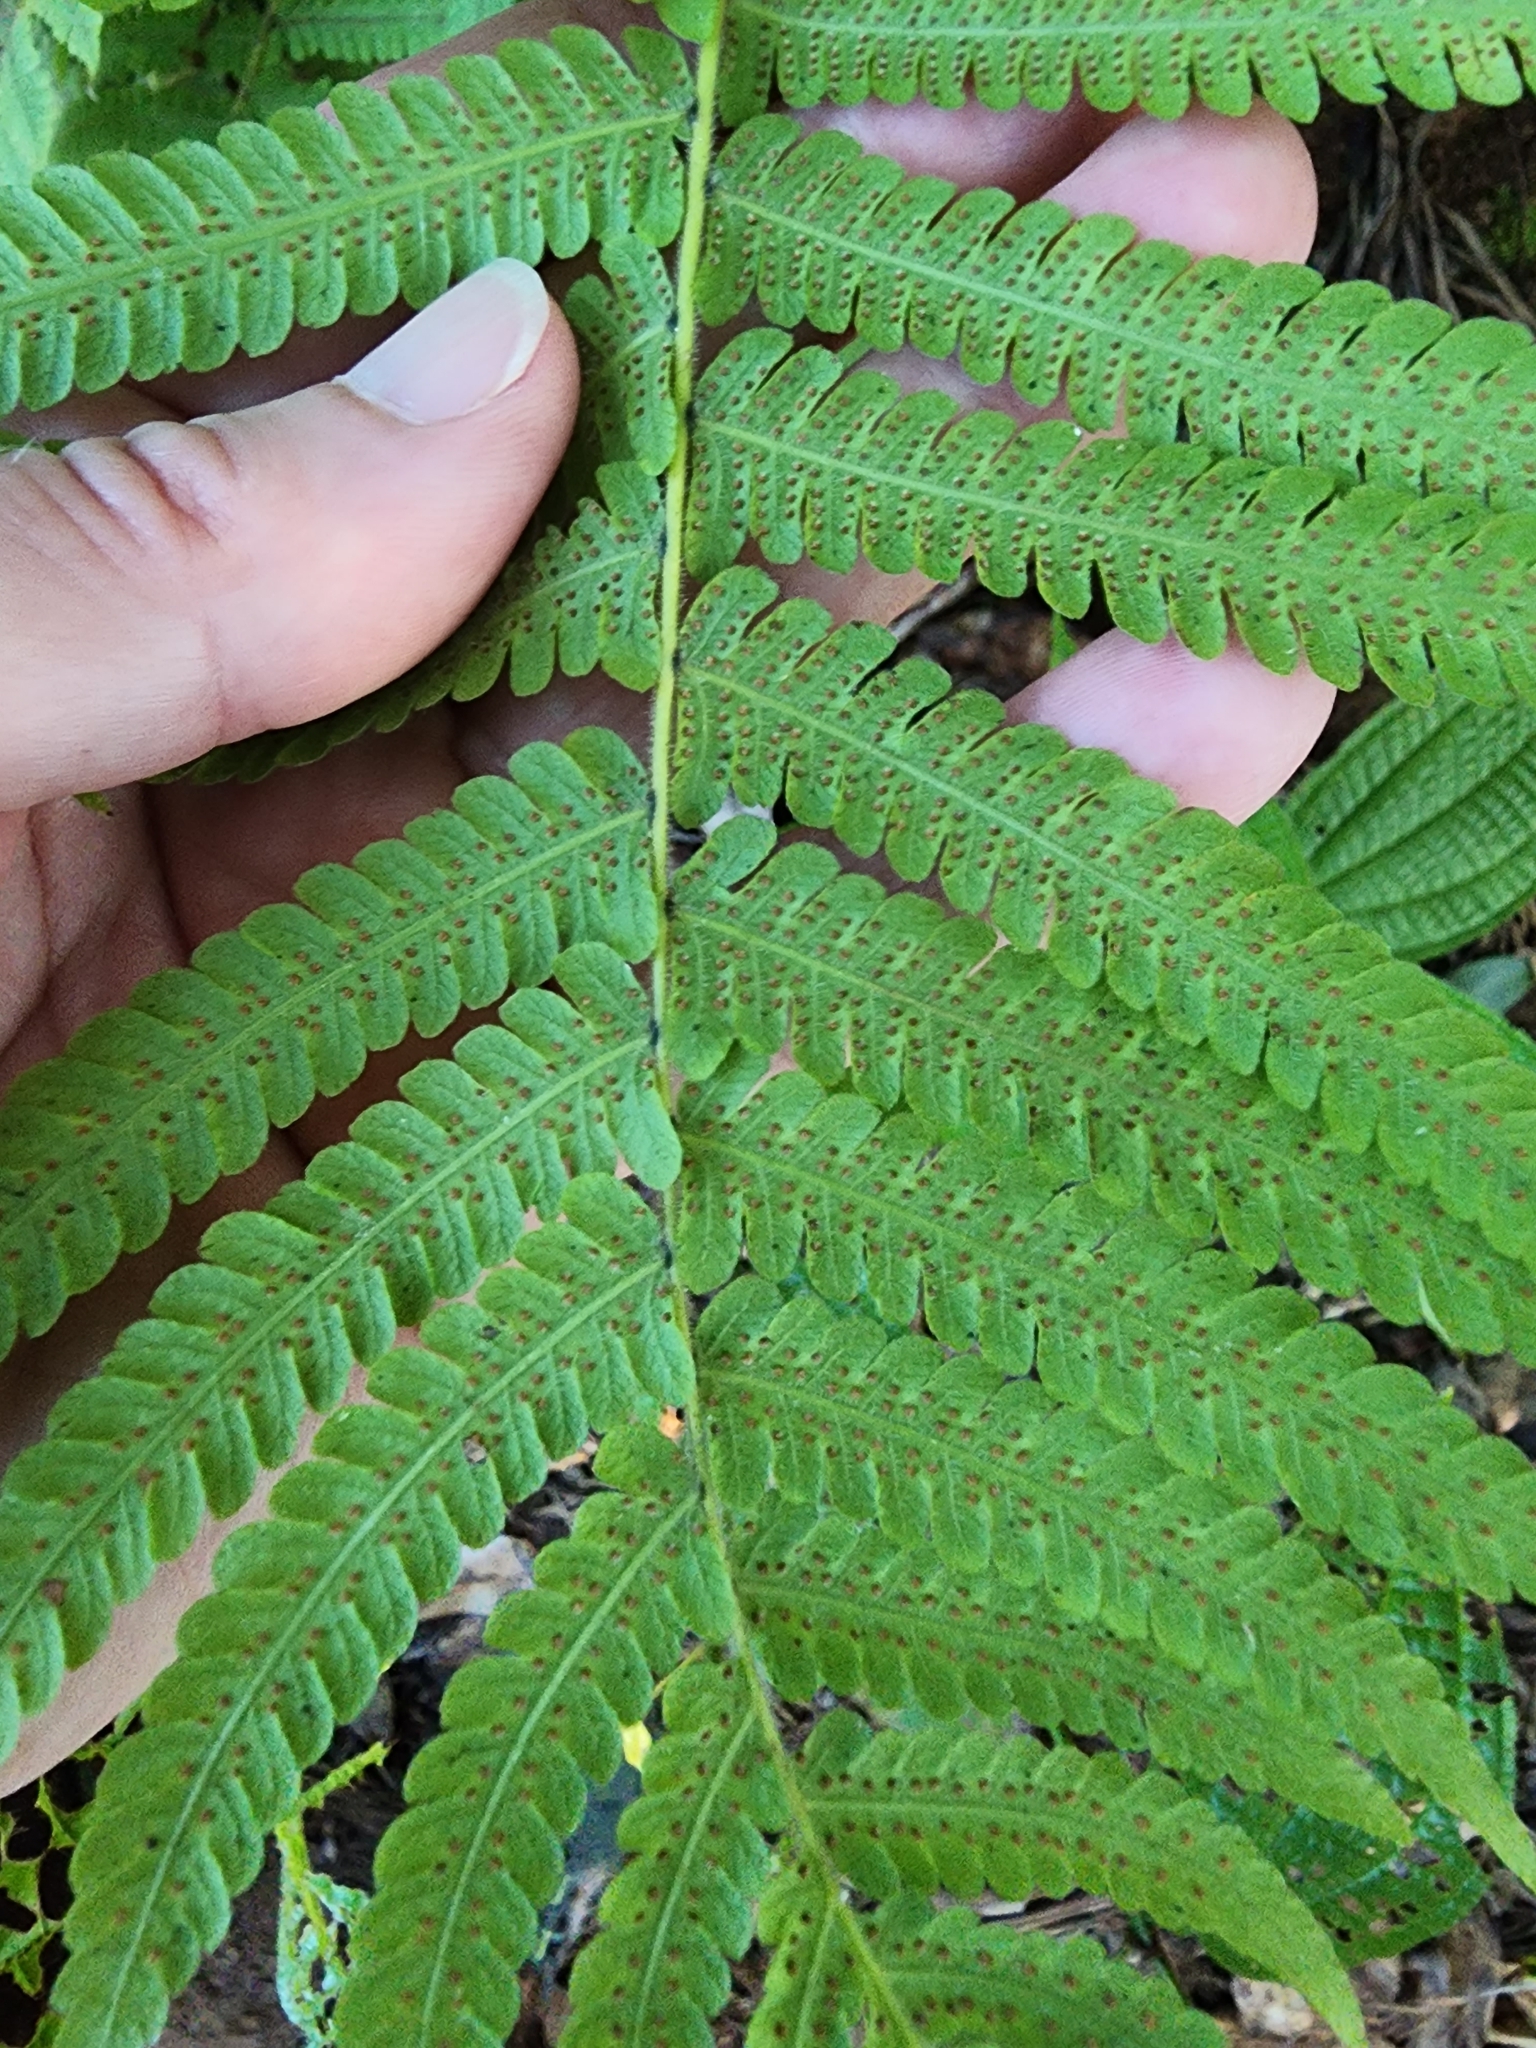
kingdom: Plantae
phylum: Tracheophyta
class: Polypodiopsida
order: Polypodiales
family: Thelypteridaceae
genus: Christella
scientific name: Christella parasitica
